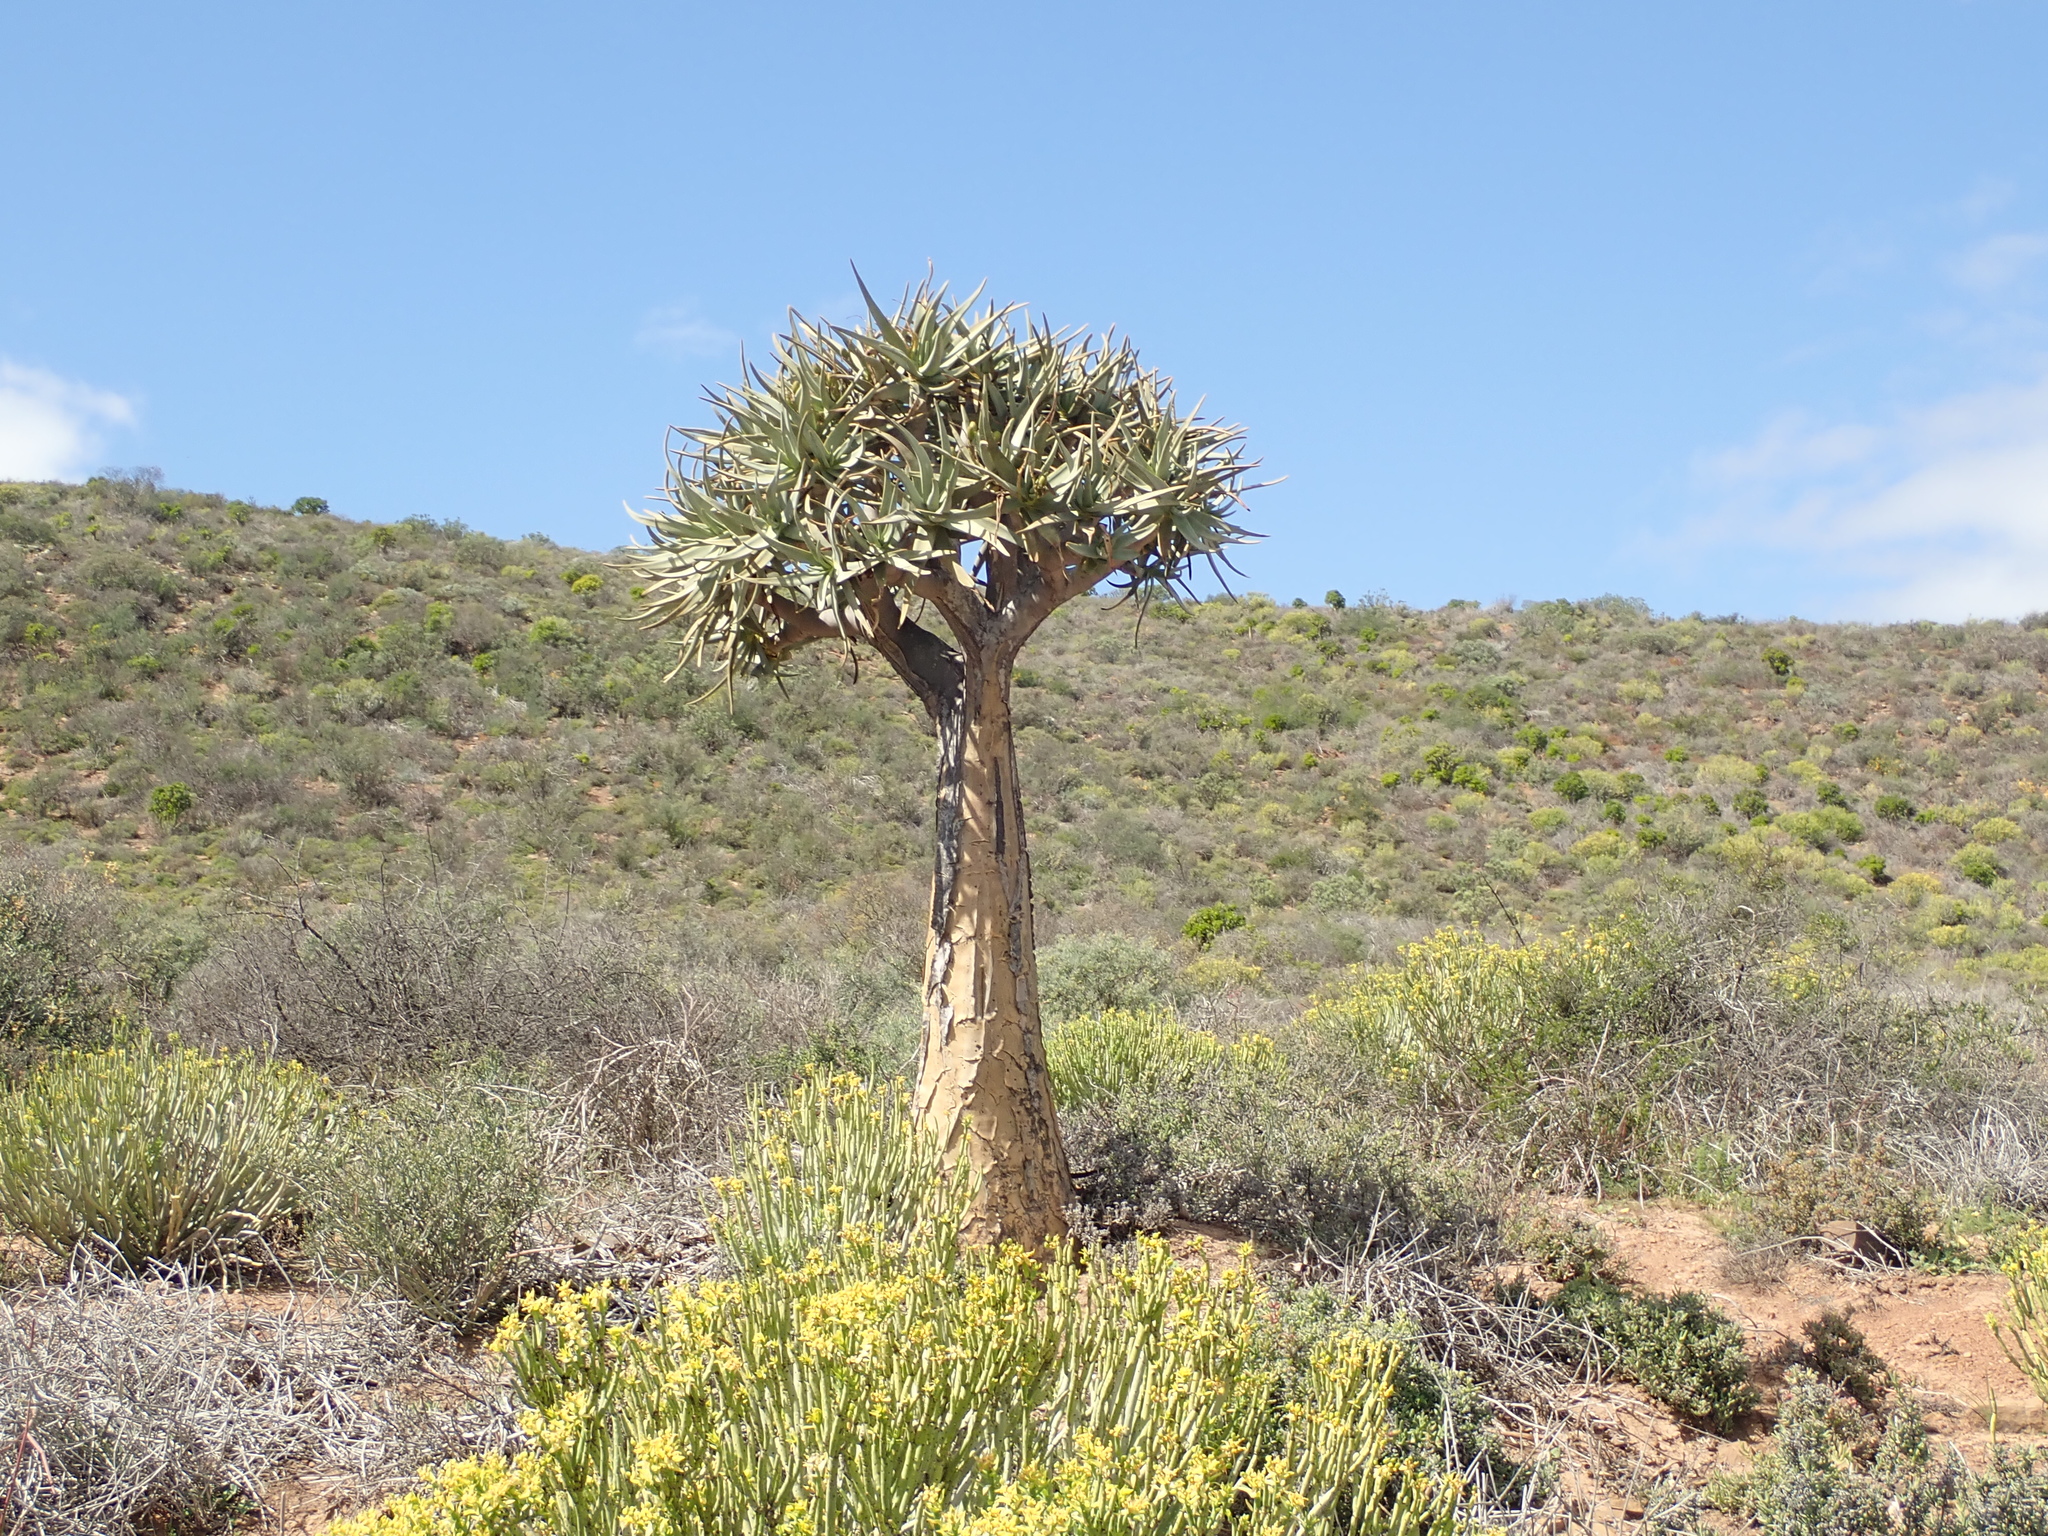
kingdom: Plantae
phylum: Tracheophyta
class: Liliopsida
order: Asparagales
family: Asphodelaceae
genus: Aloidendron
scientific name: Aloidendron dichotomum
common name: Quiver tree
